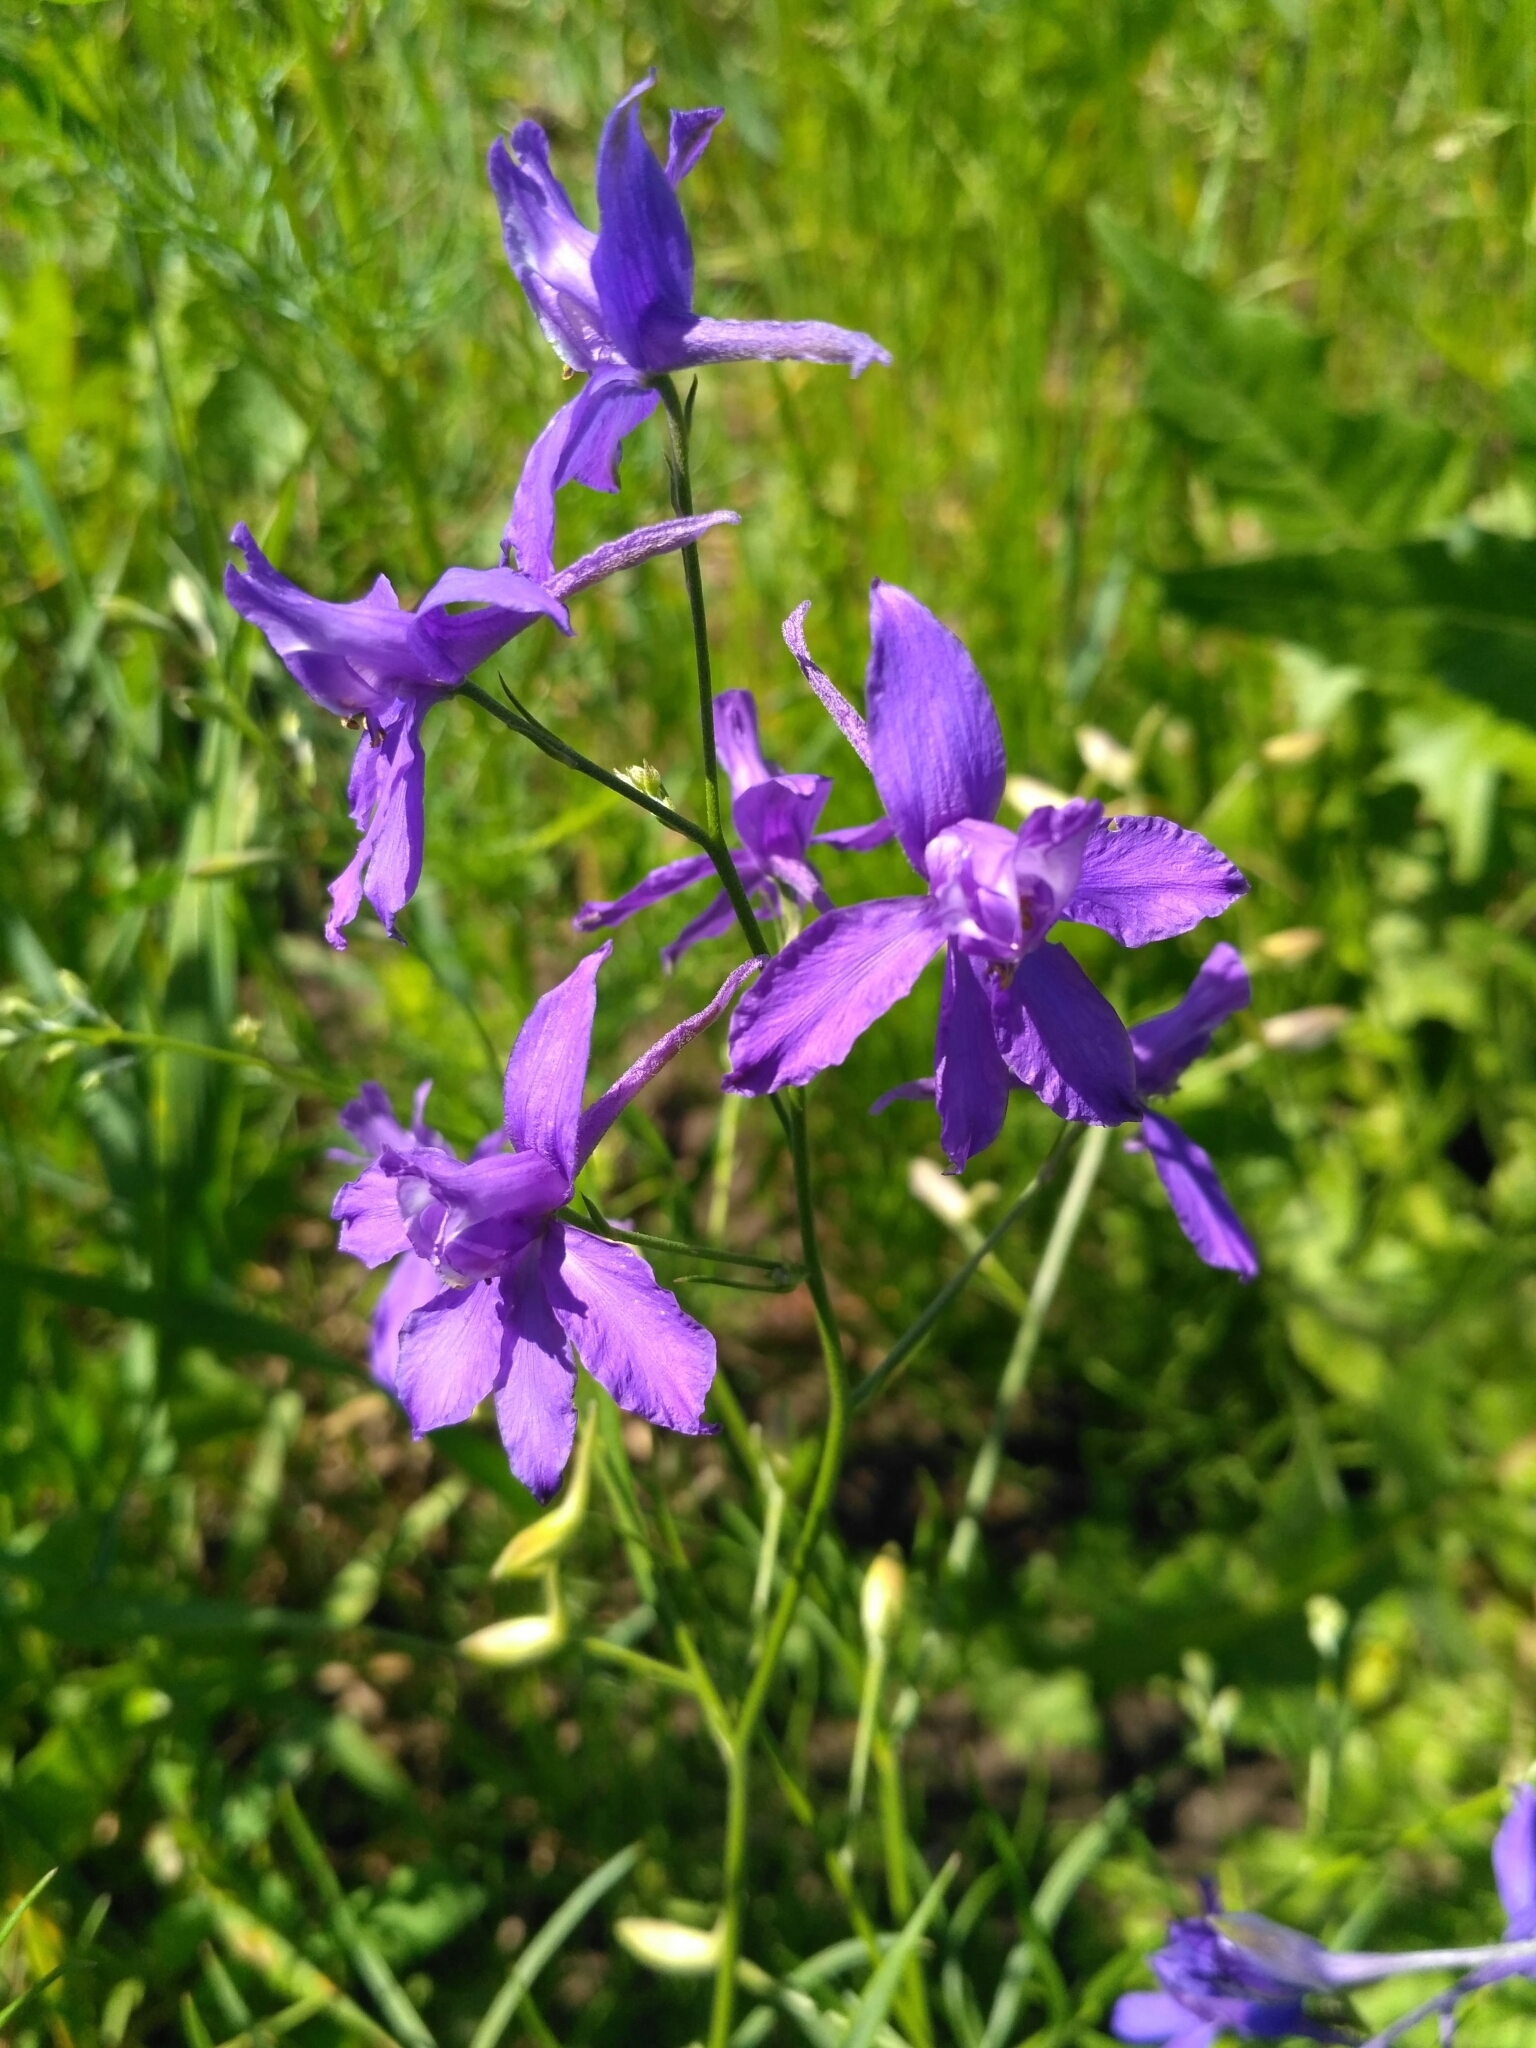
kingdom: Plantae
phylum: Tracheophyta
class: Magnoliopsida
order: Ranunculales
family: Ranunculaceae
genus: Delphinium
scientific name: Delphinium consolida
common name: Branching larkspur
